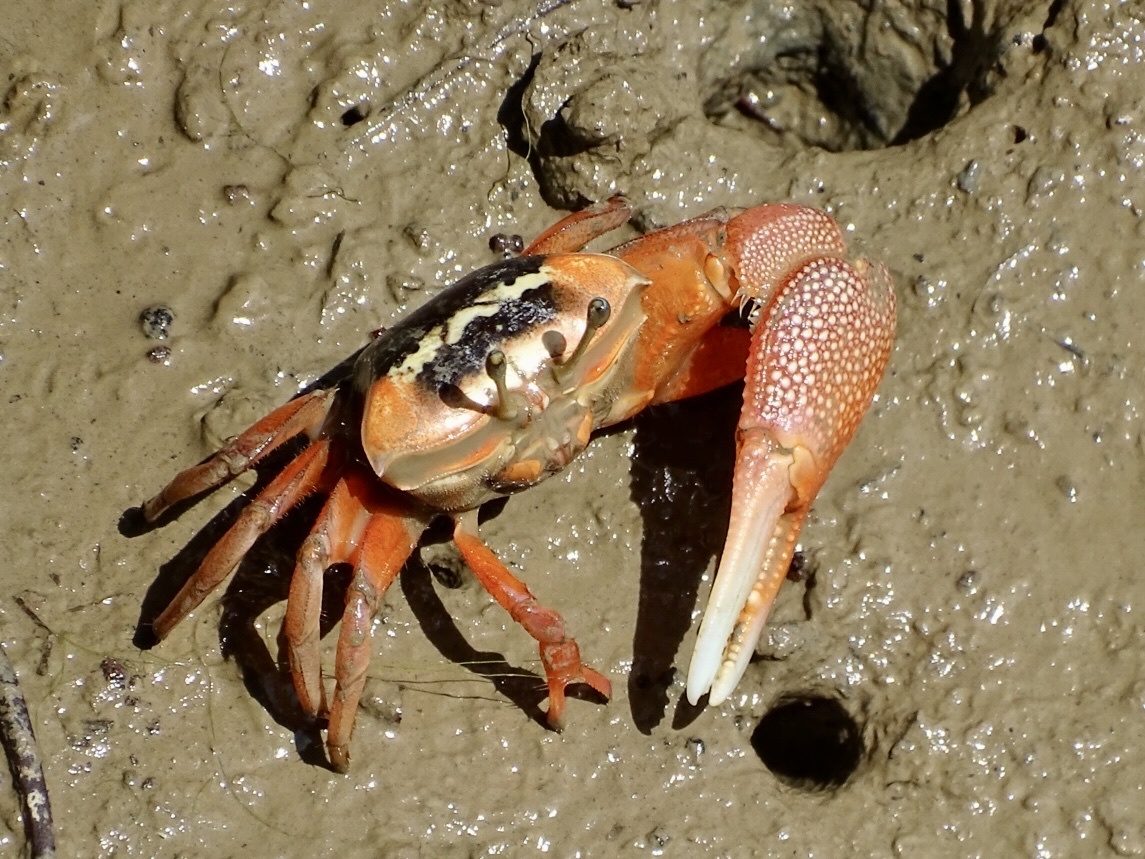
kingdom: Animalia
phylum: Arthropoda
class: Malacostraca
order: Decapoda
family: Ocypodidae
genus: Tubuca
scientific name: Tubuca arcuata
